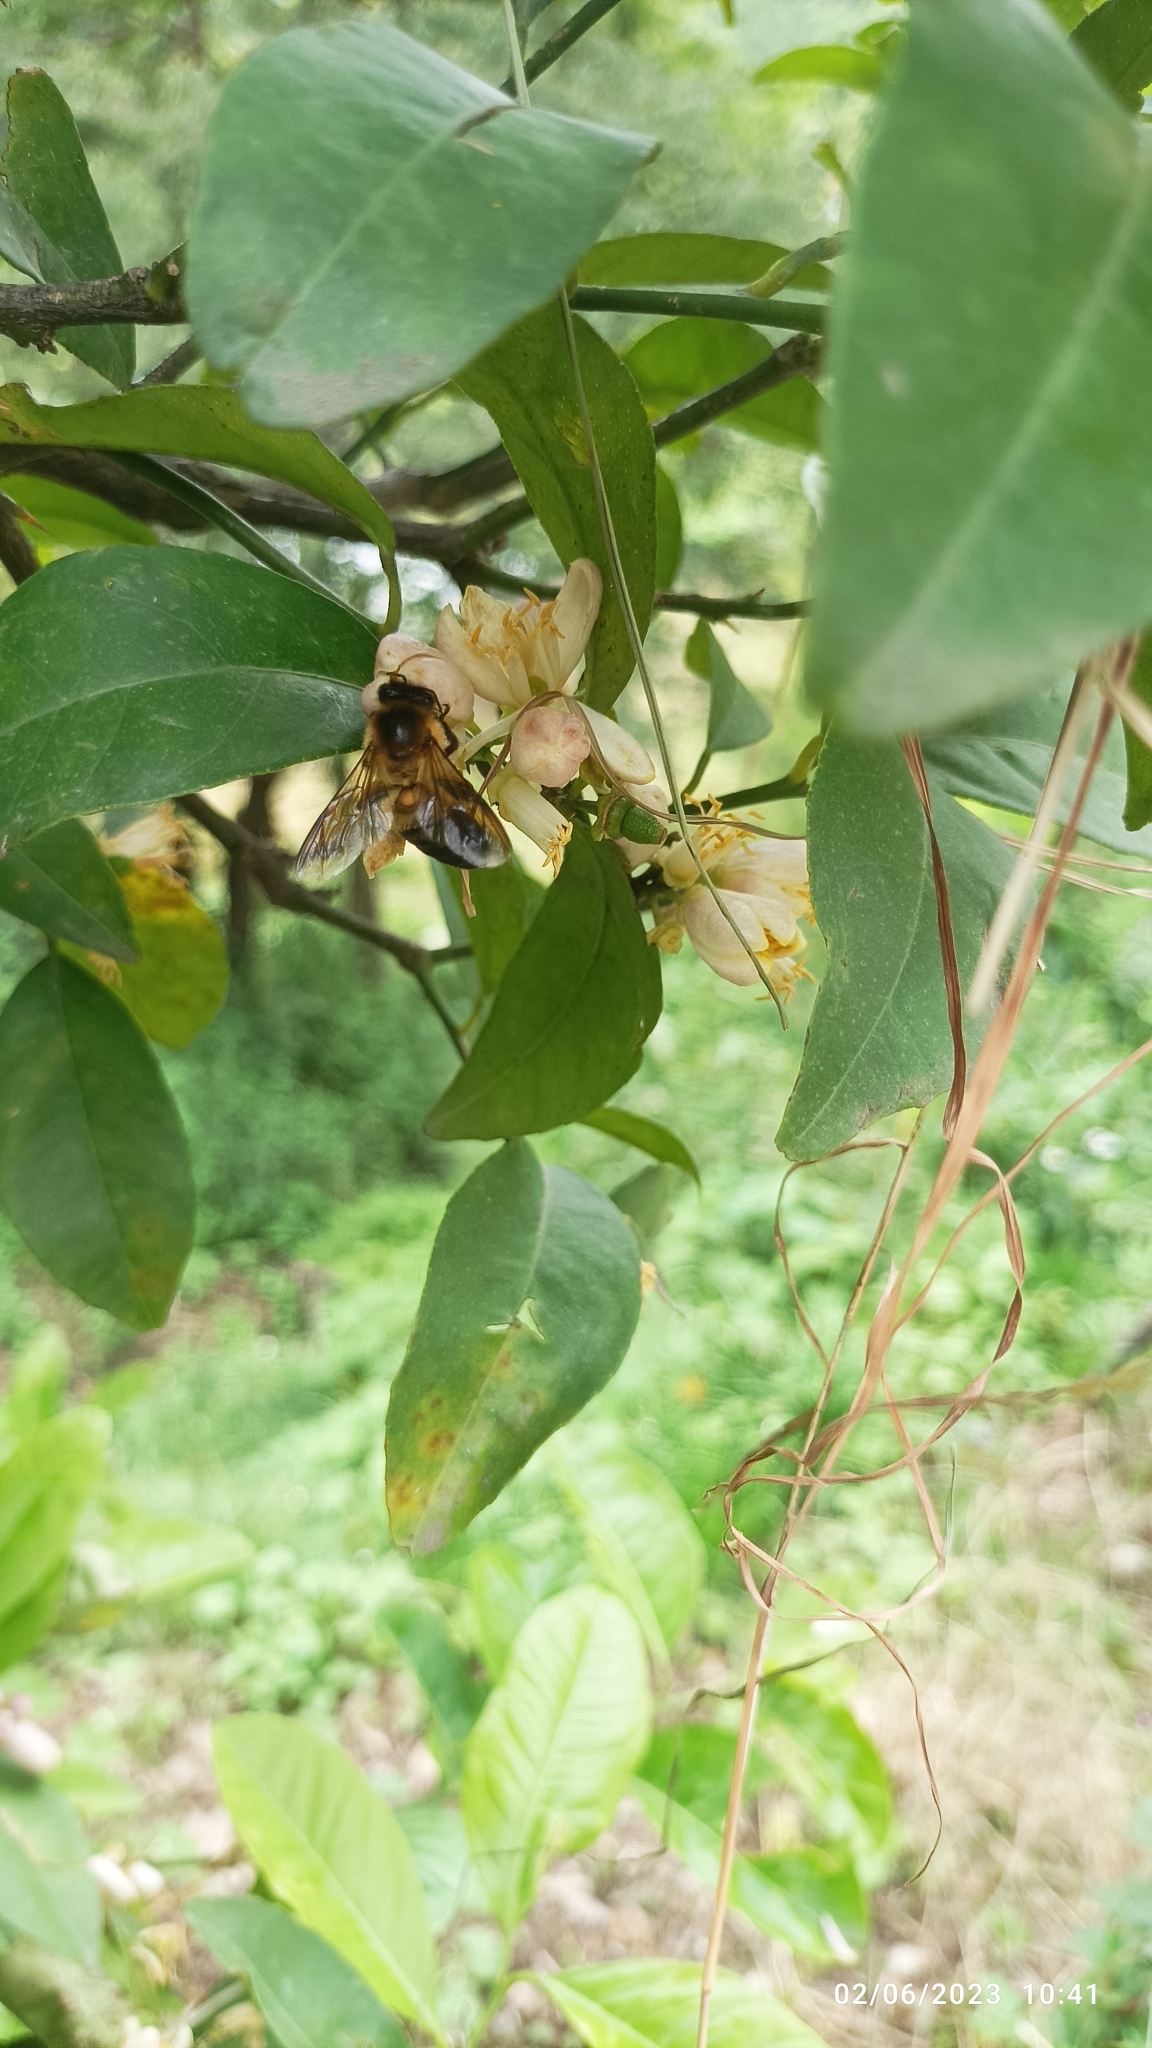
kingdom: Animalia
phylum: Arthropoda
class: Insecta
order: Hymenoptera
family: Apidae
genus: Apis
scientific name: Apis laboriosa
